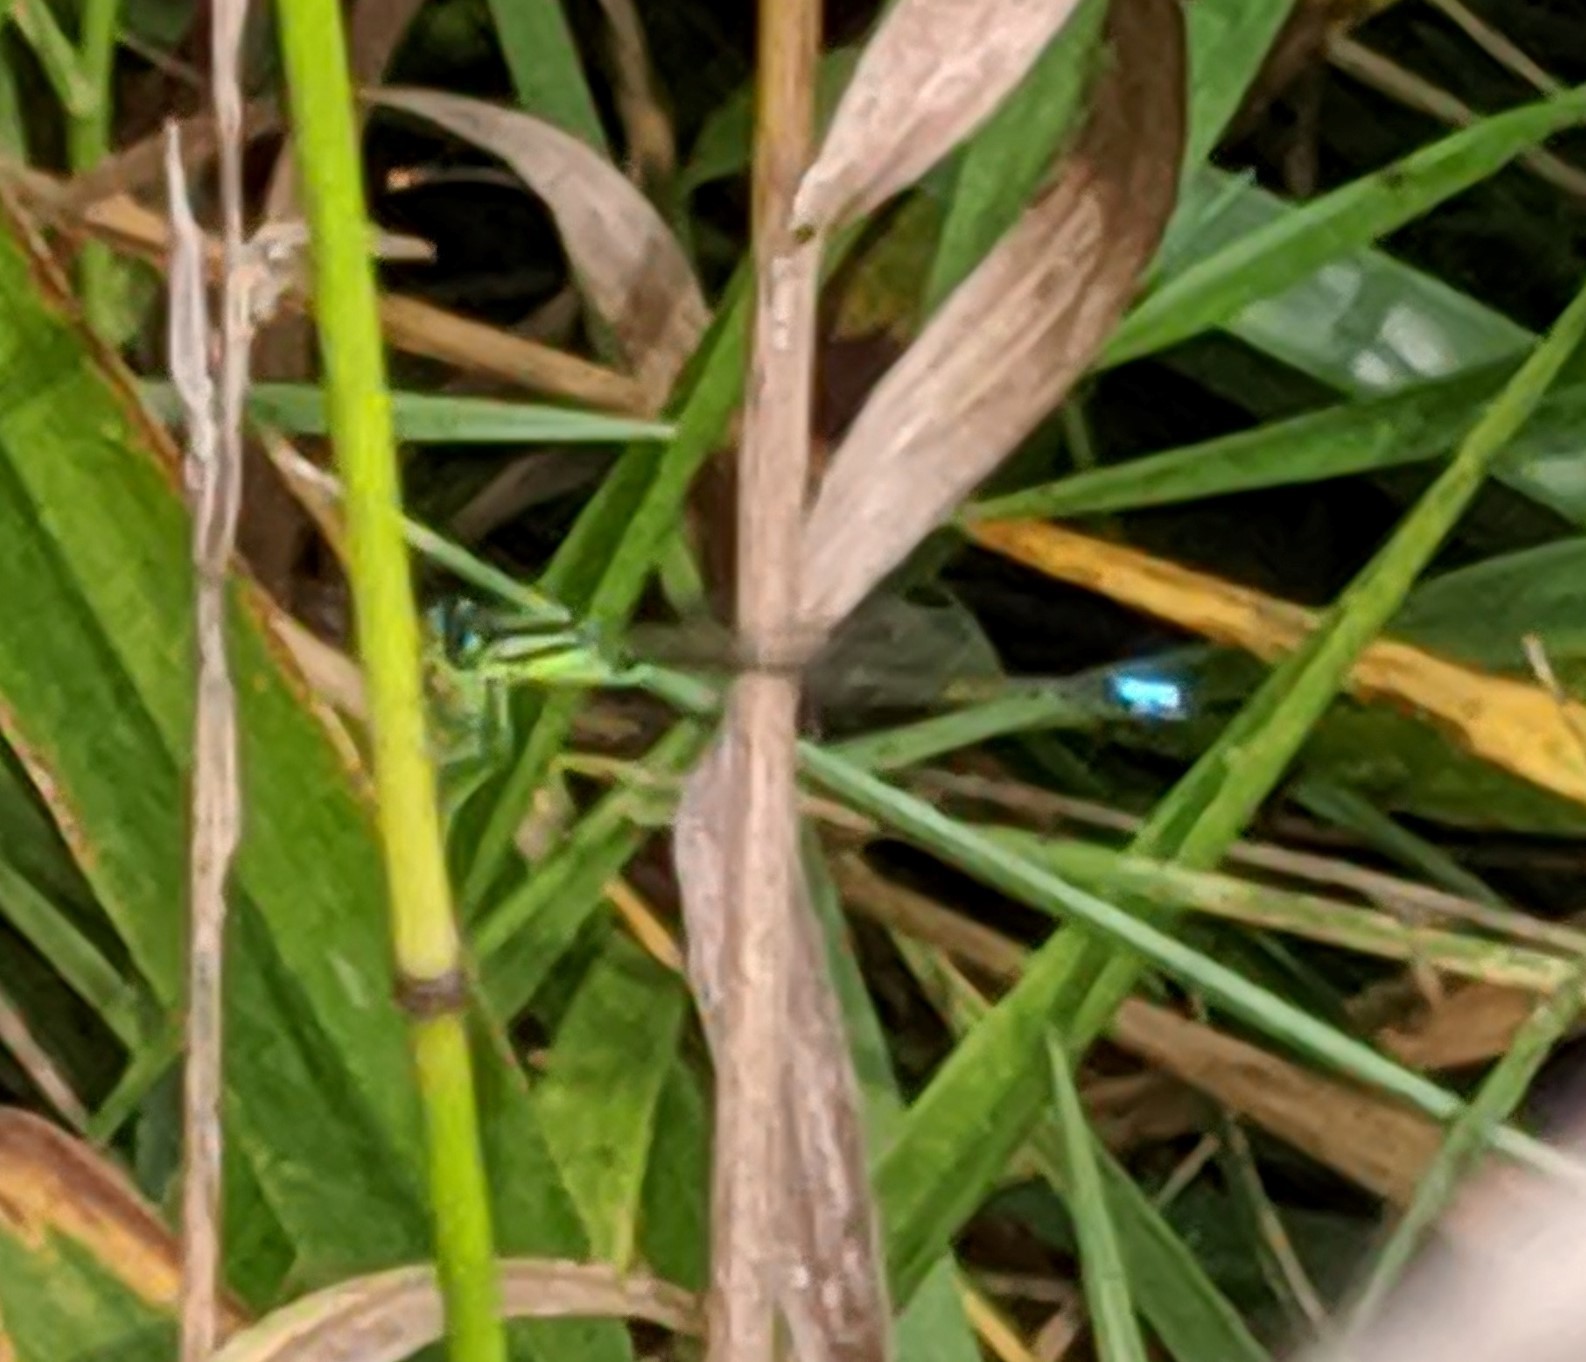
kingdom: Animalia
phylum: Arthropoda
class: Insecta
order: Odonata
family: Coenagrionidae
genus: Ischnura
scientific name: Ischnura verticalis
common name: Eastern forktail
